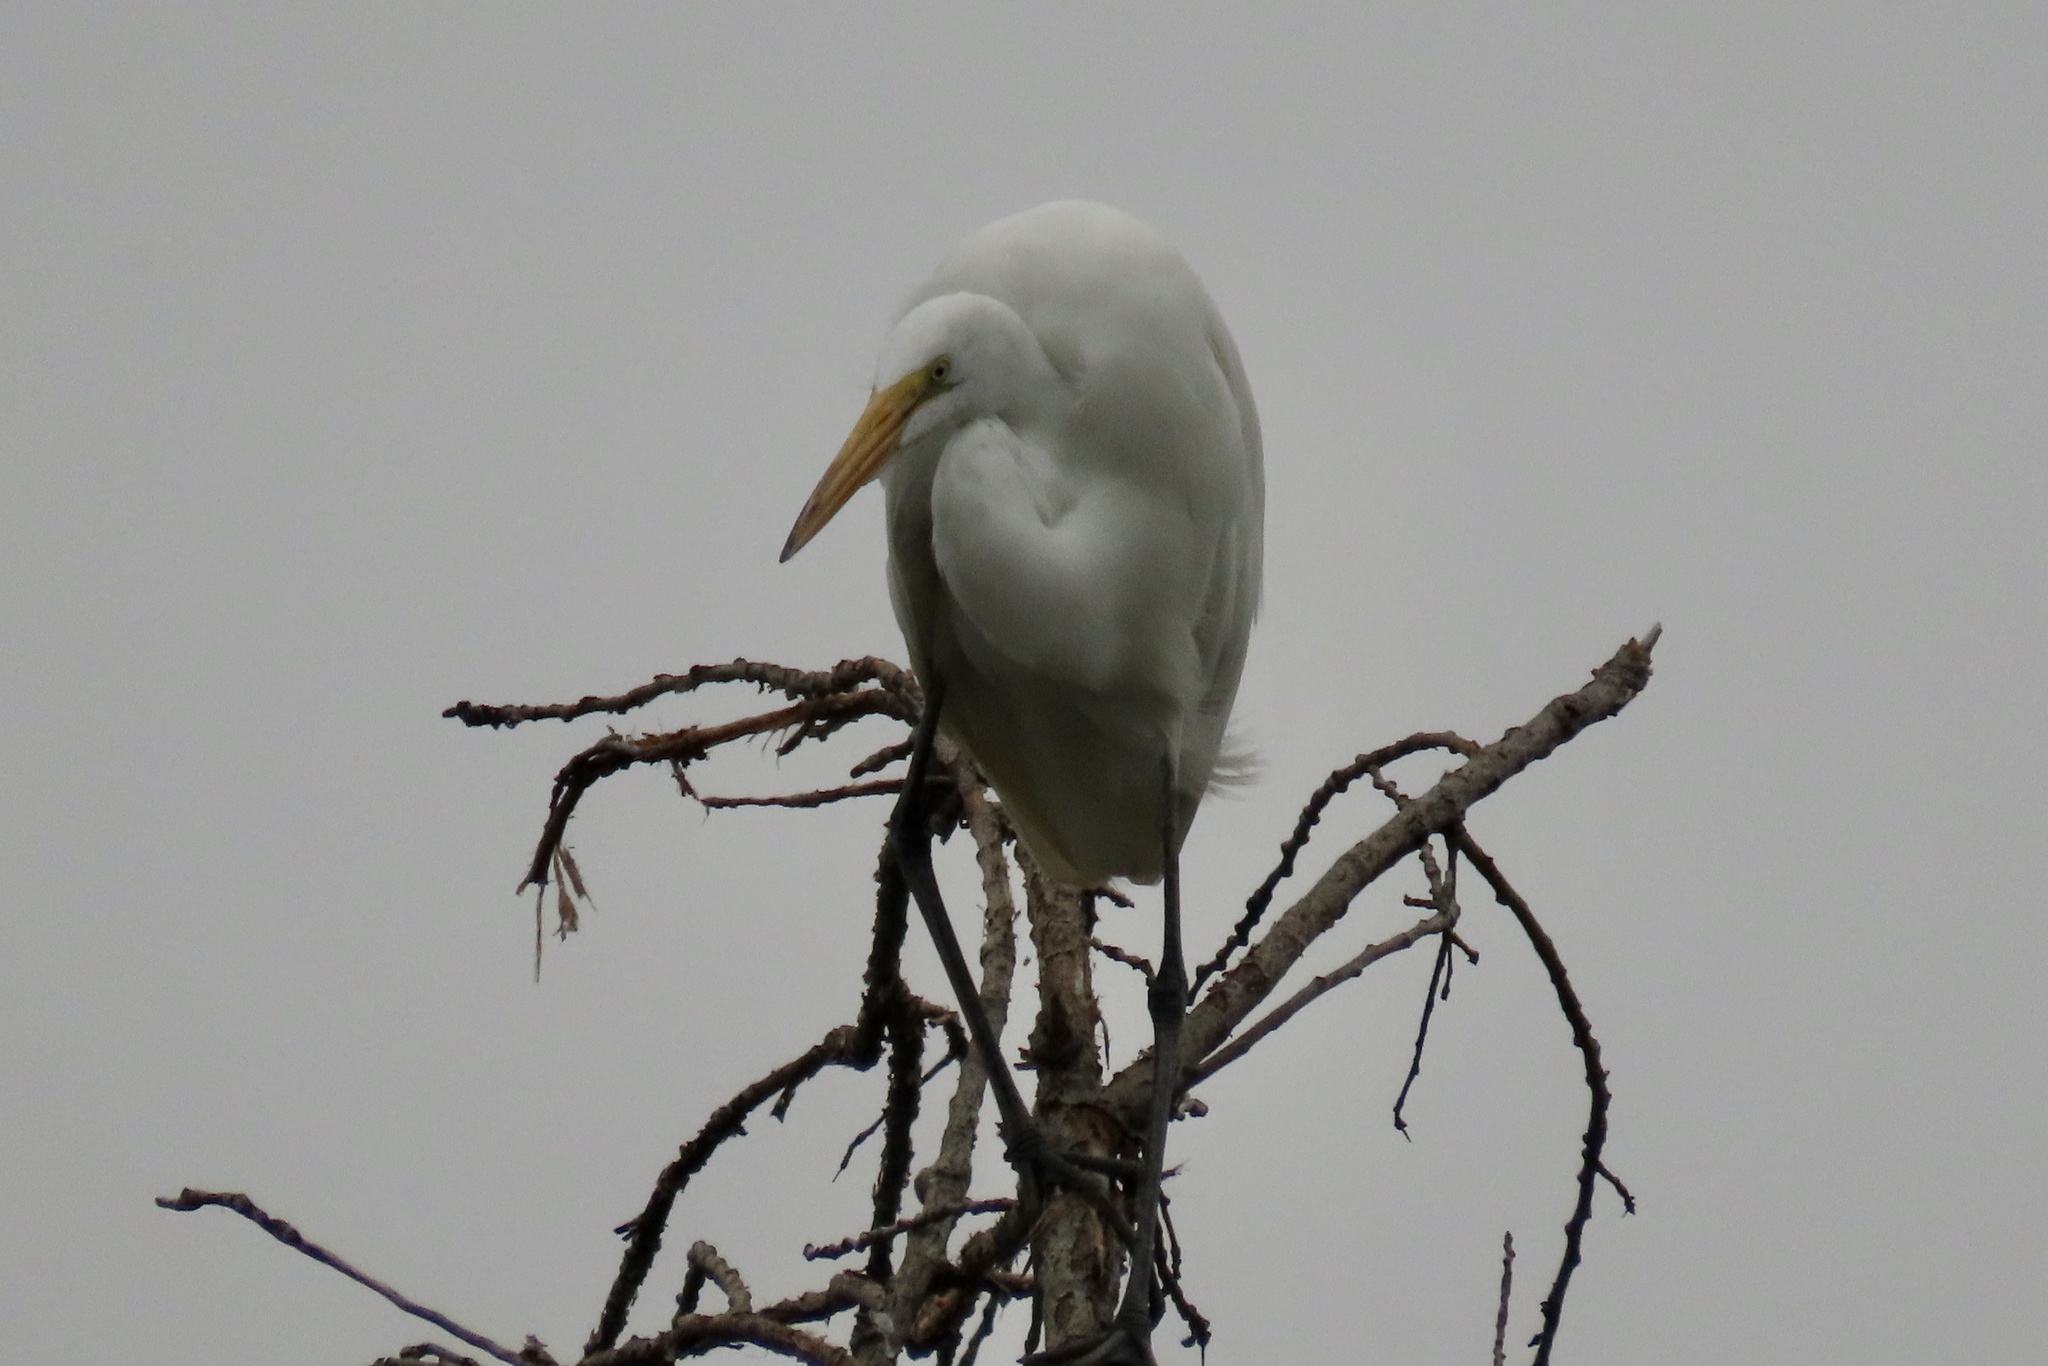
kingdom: Animalia
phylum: Chordata
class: Aves
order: Pelecaniformes
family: Ardeidae
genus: Ardea
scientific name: Ardea alba
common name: Great egret
